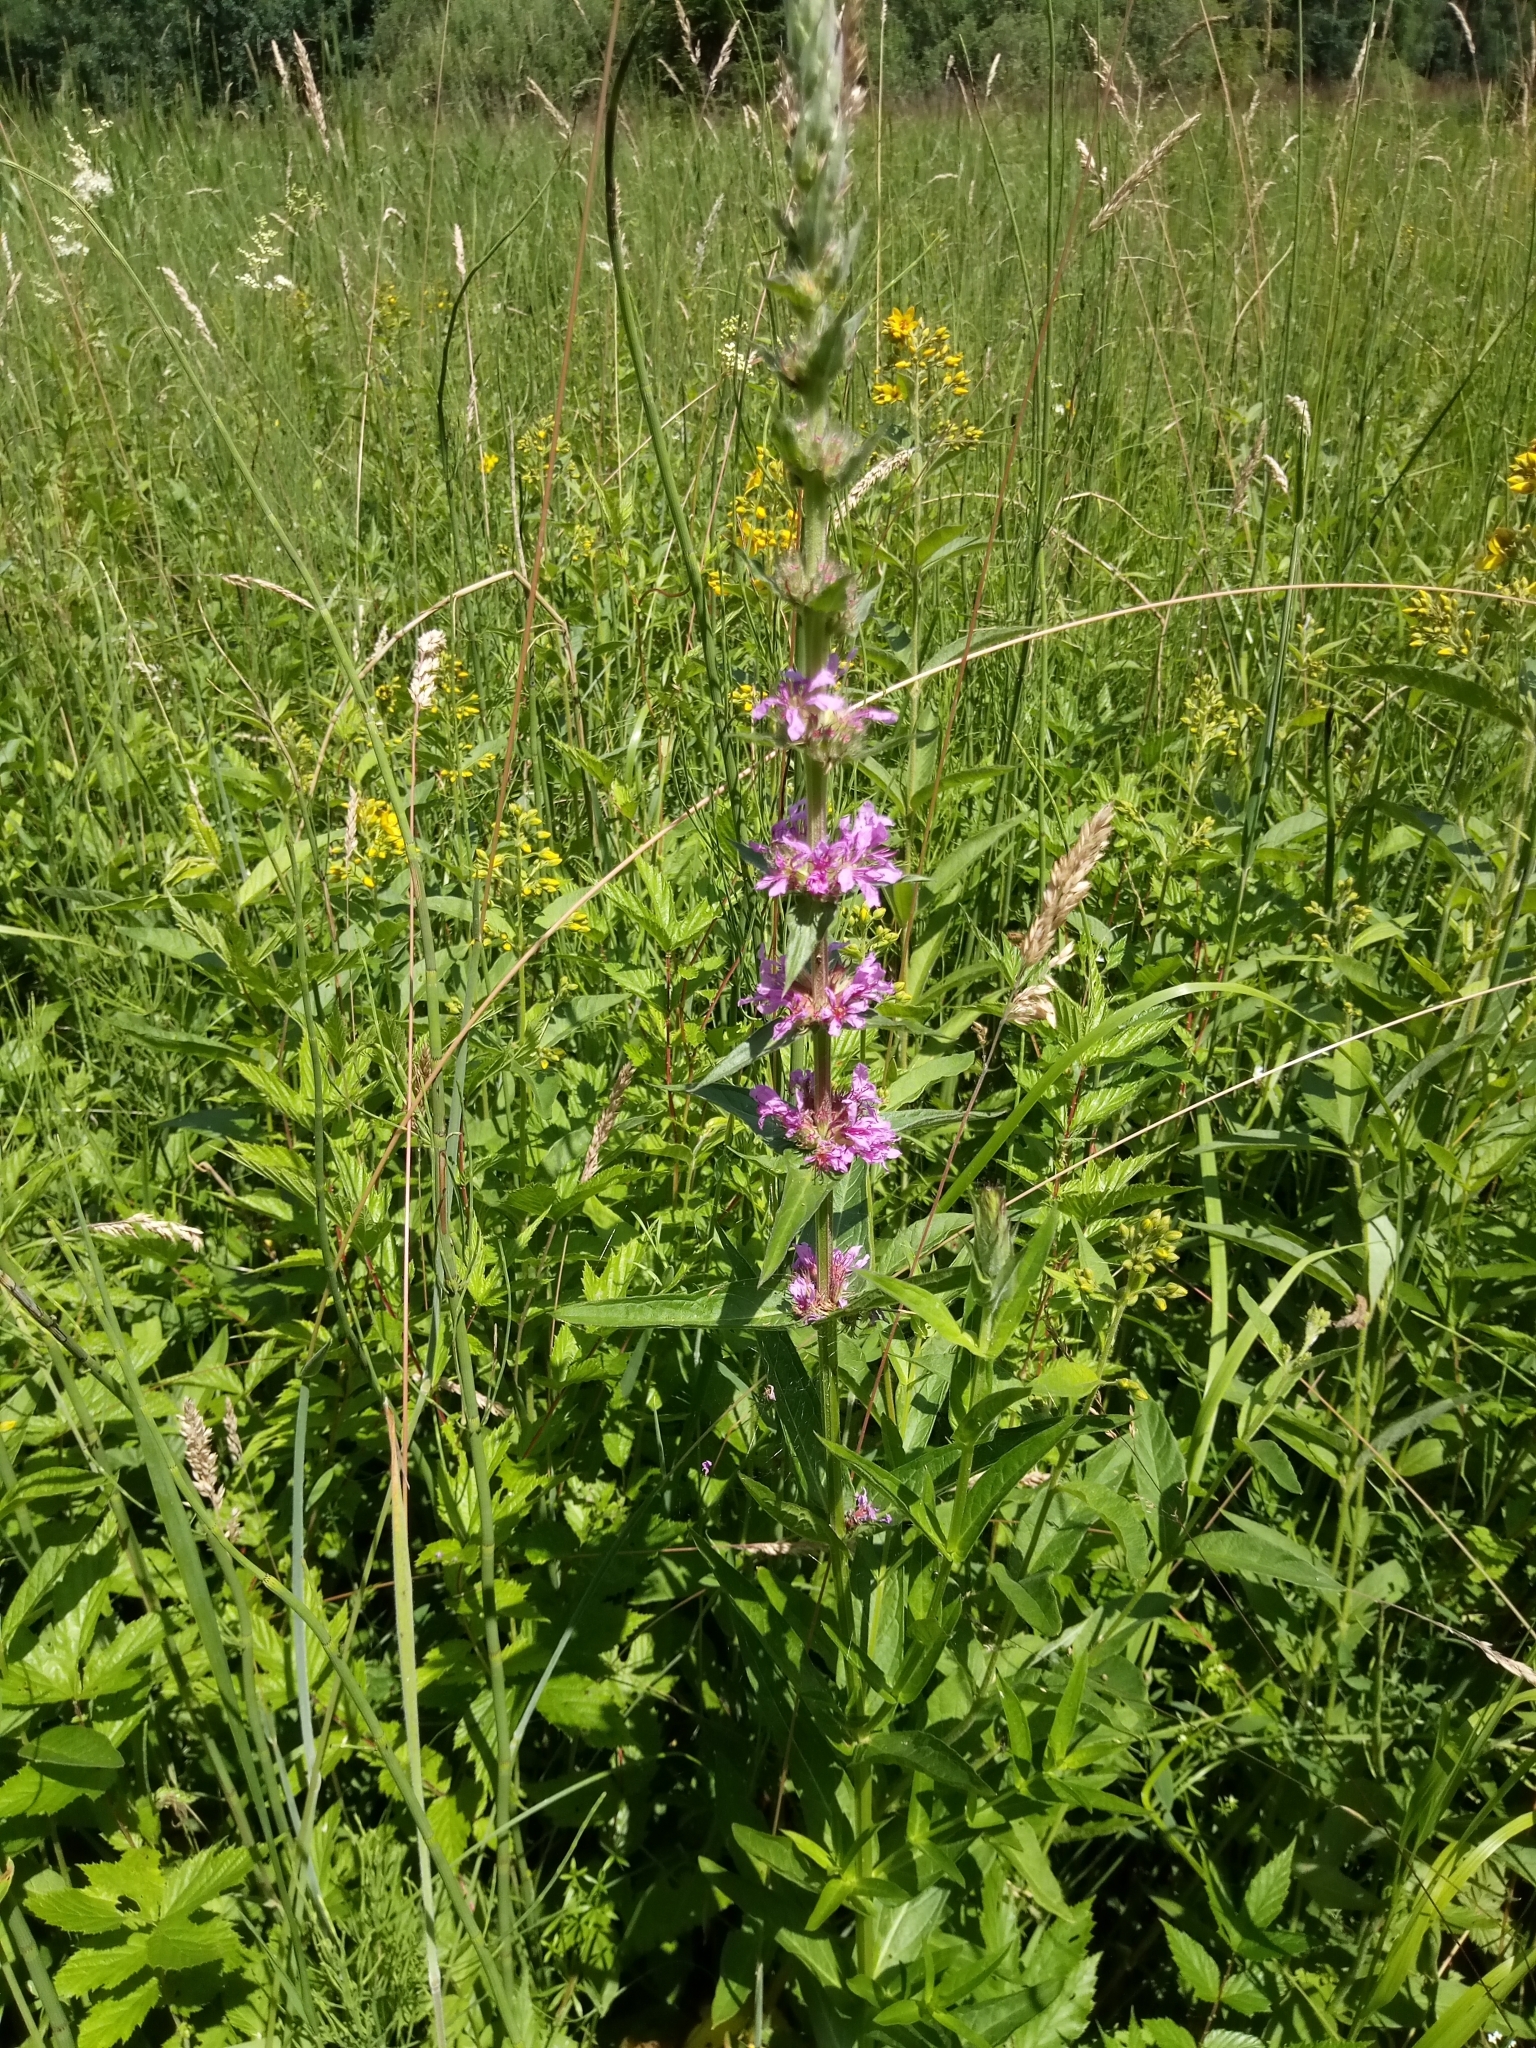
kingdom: Plantae
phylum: Tracheophyta
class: Magnoliopsida
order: Myrtales
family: Lythraceae
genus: Lythrum
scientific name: Lythrum salicaria
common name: Purple loosestrife
